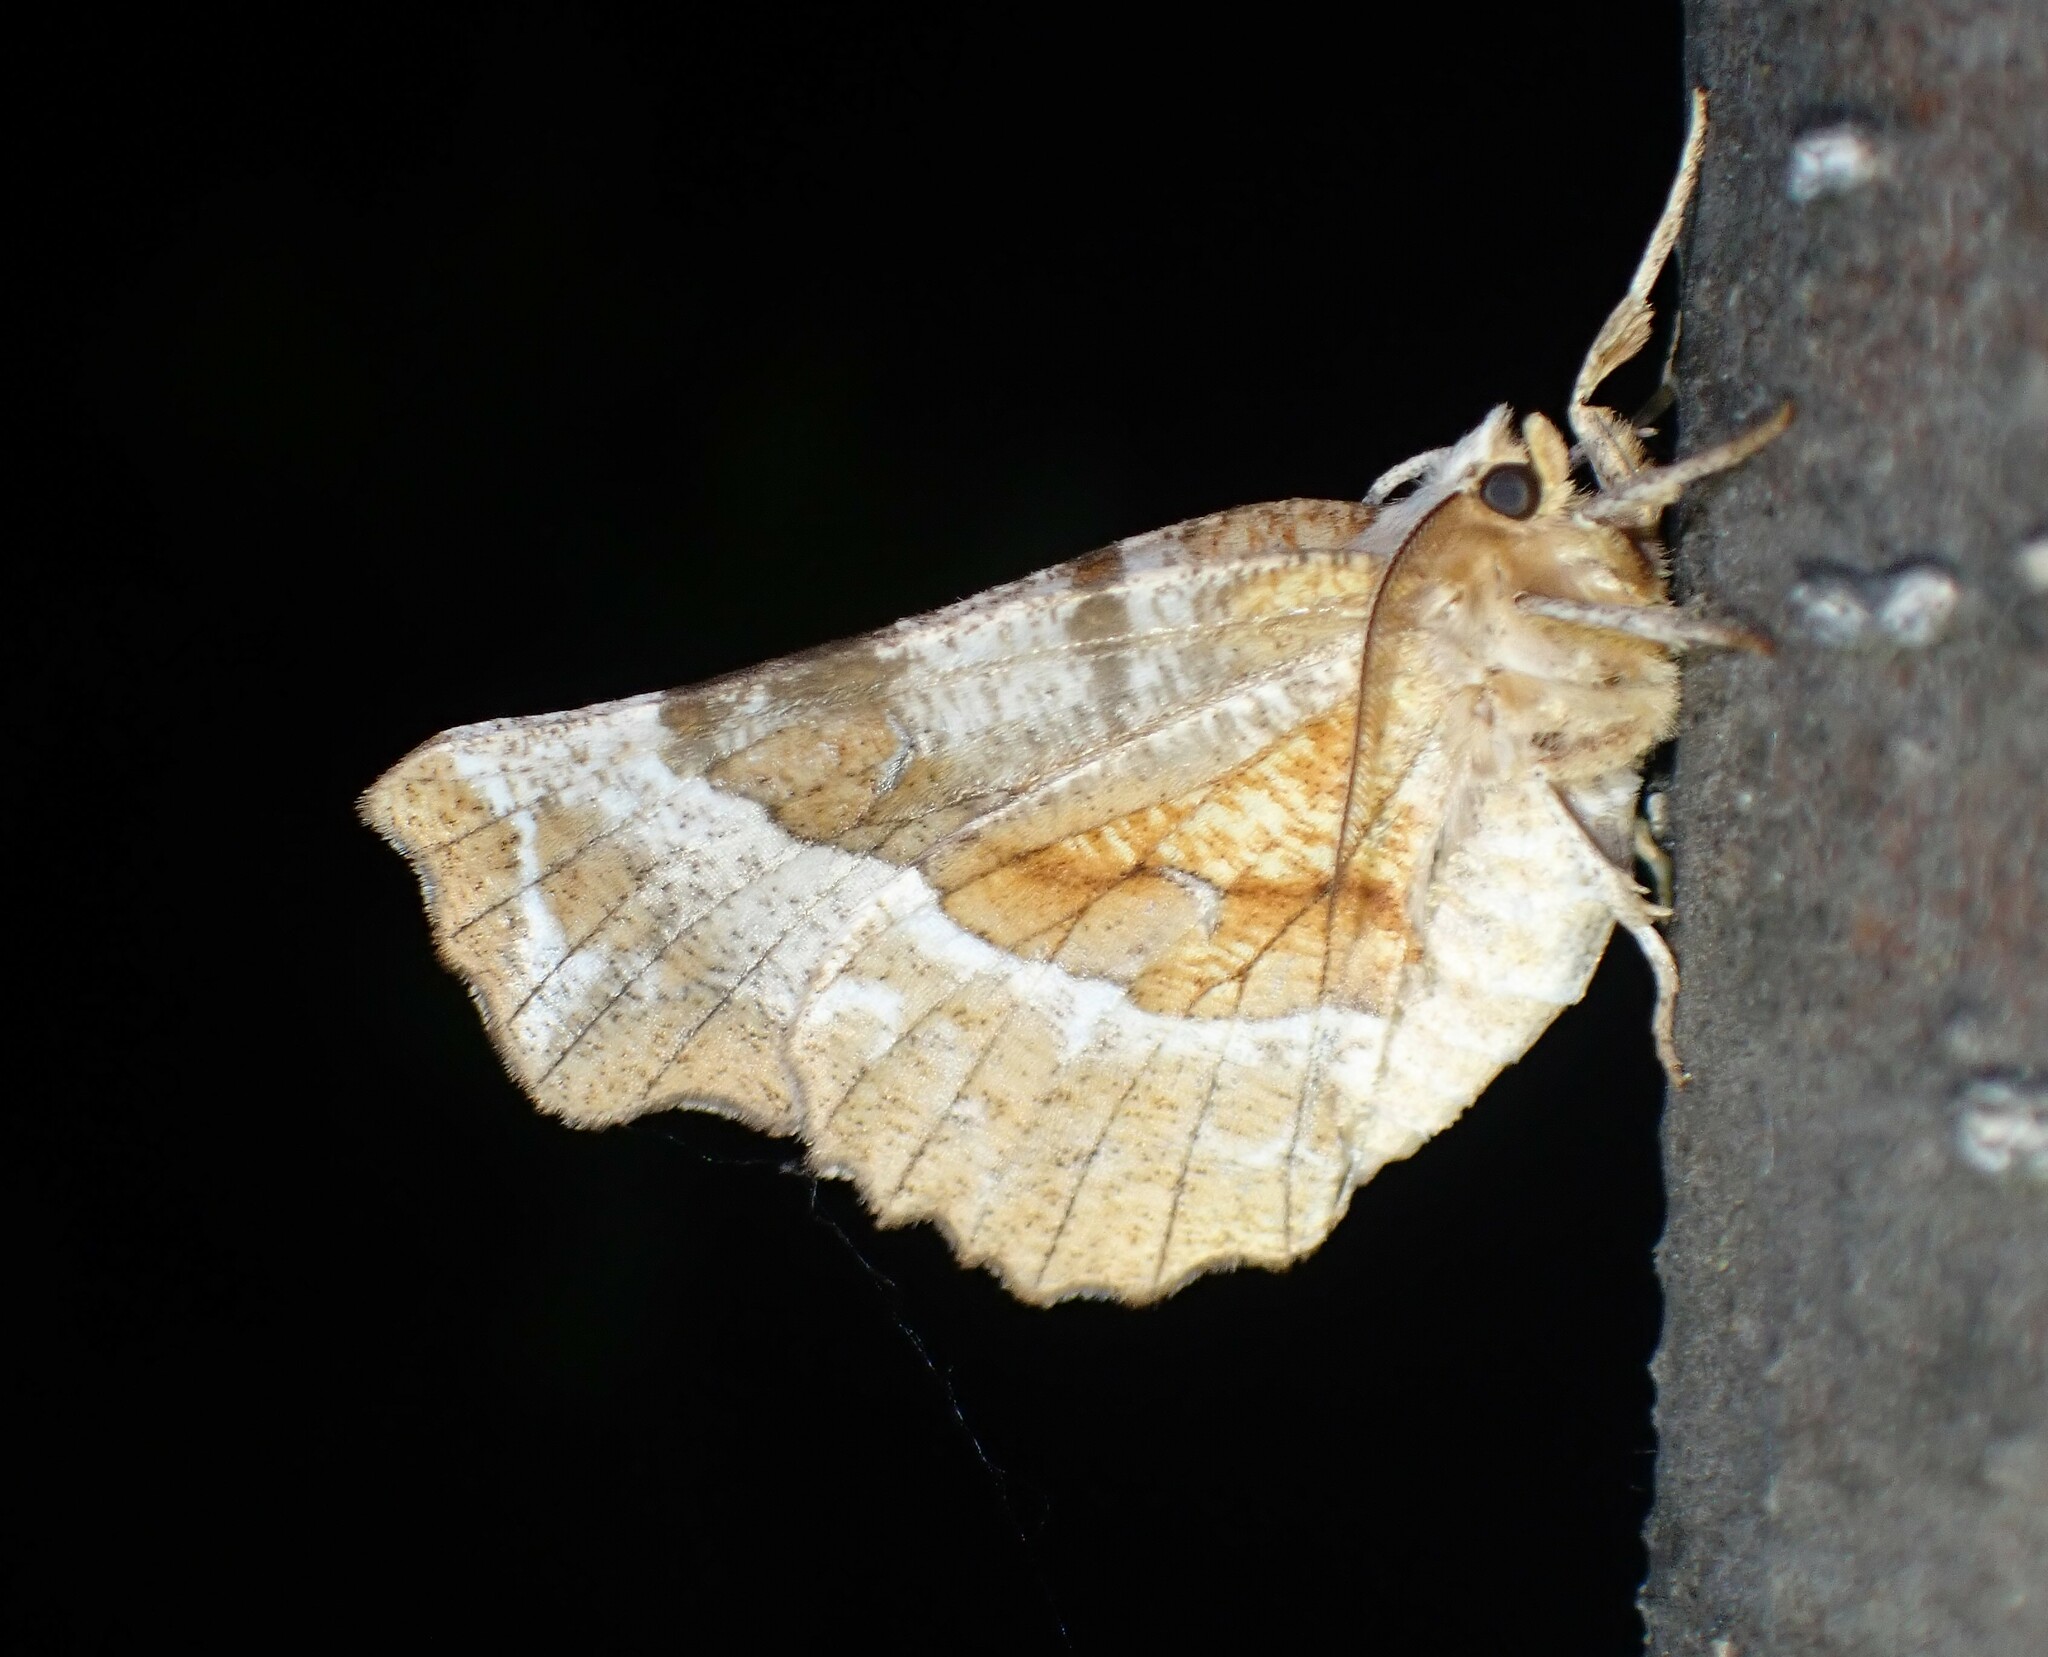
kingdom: Animalia
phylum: Arthropoda
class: Insecta
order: Lepidoptera
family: Geometridae
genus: Selenia
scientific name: Selenia kentaria
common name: Kent's geometer
